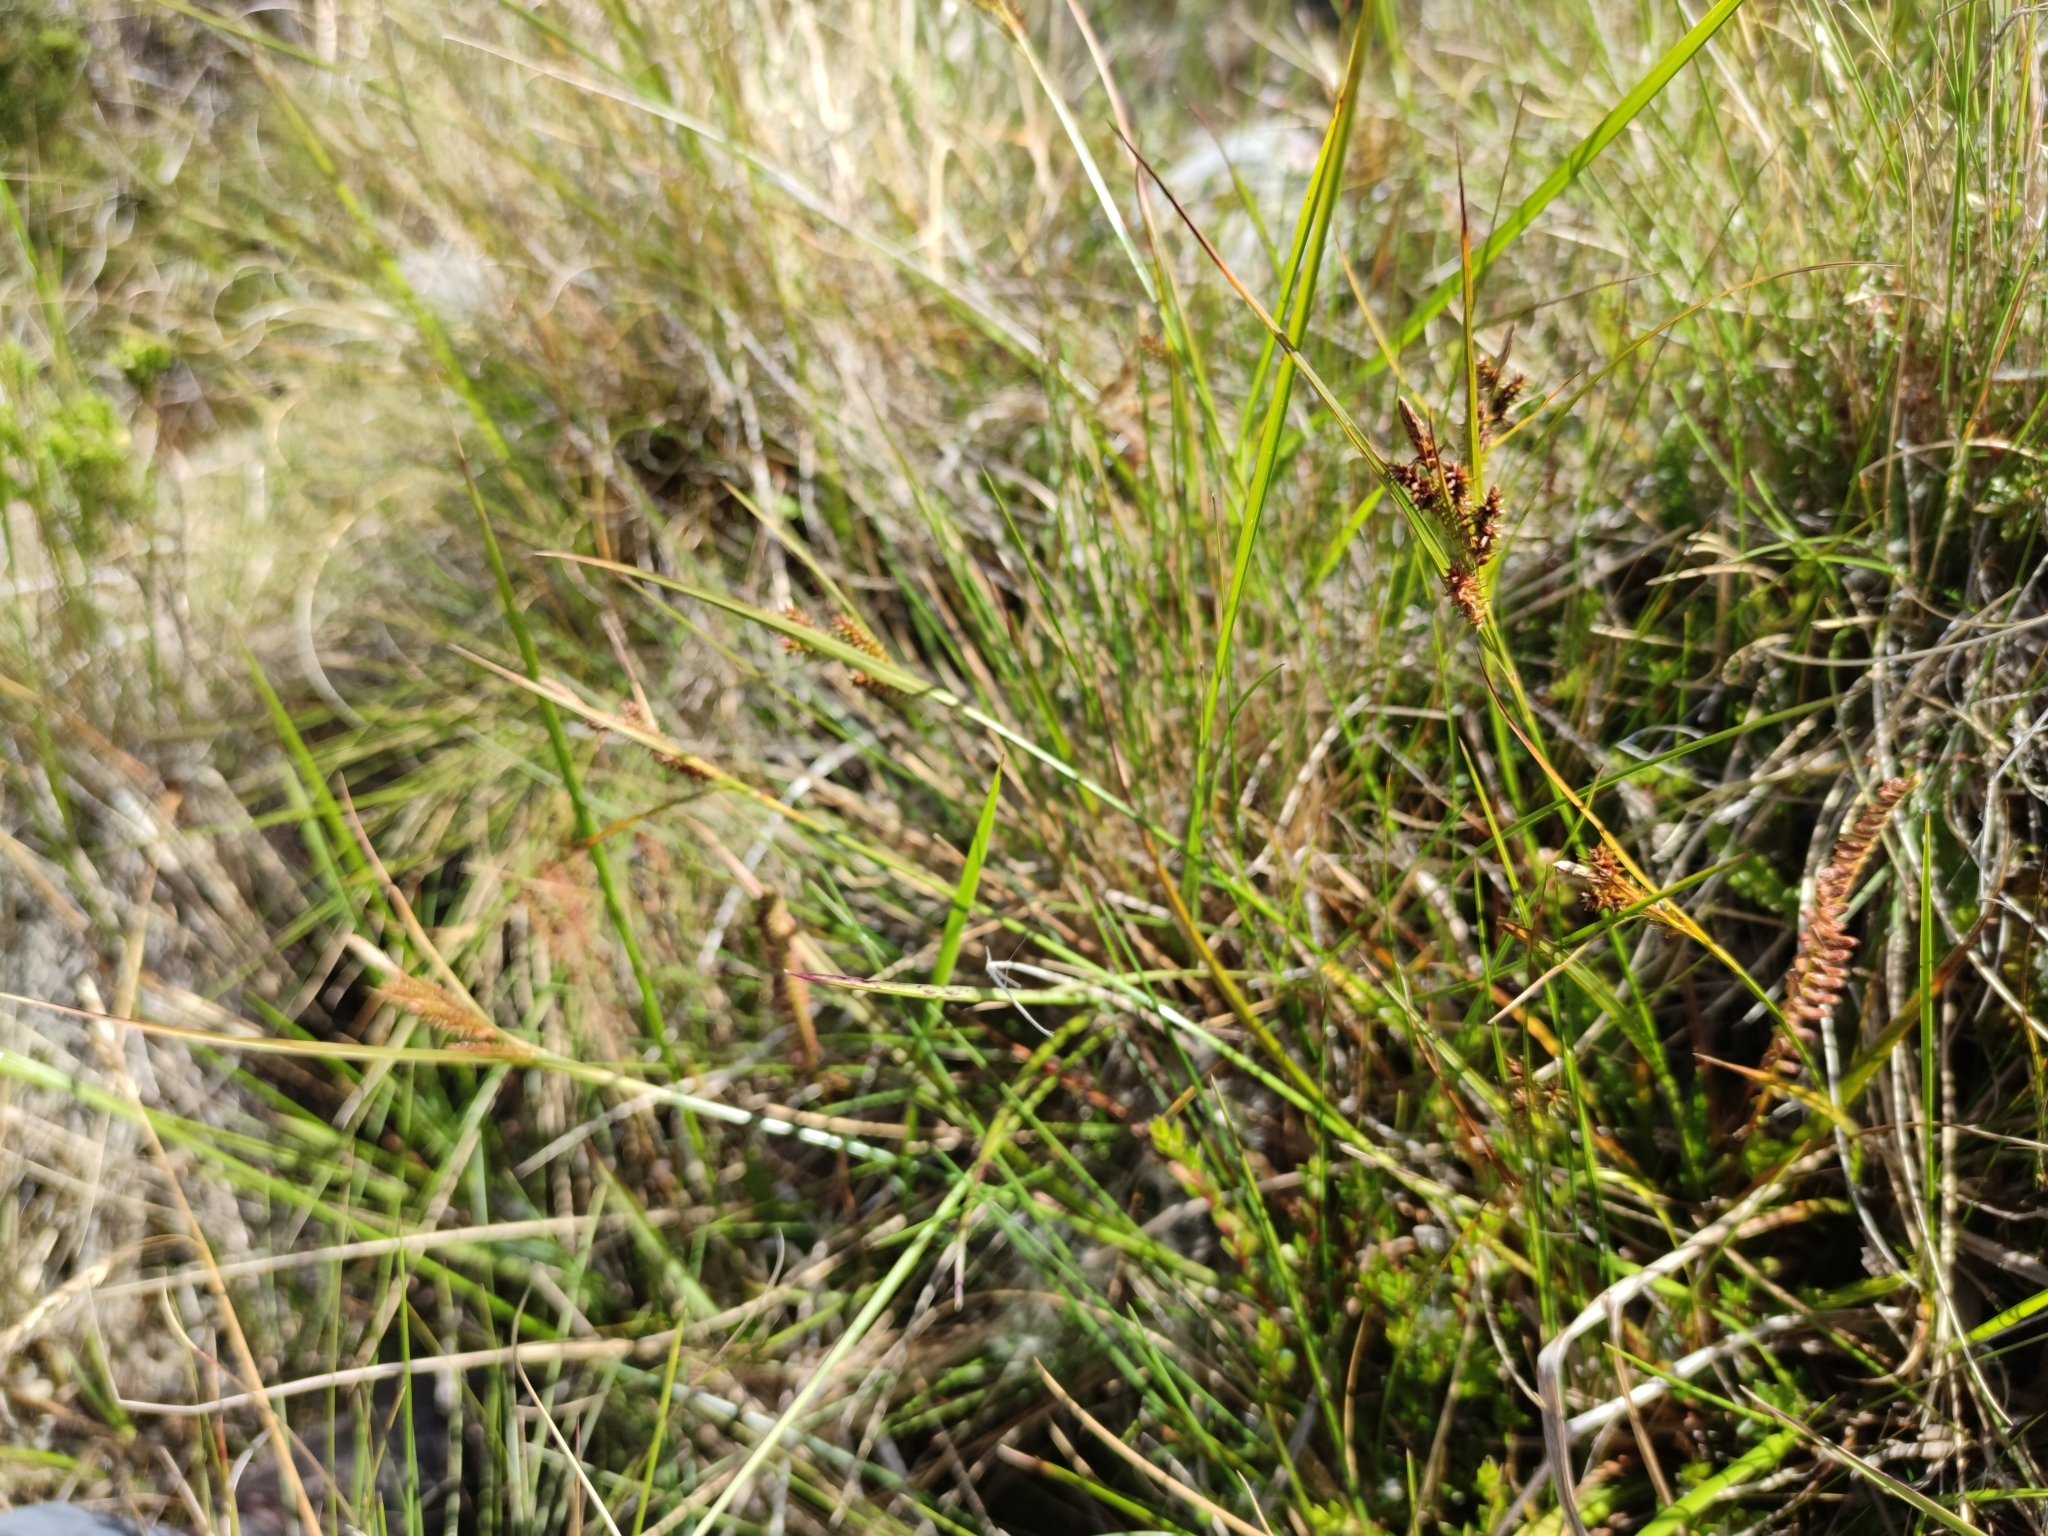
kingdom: Plantae
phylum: Tracheophyta
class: Liliopsida
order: Poales
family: Cyperaceae
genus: Carex
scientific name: Carex fuscula
